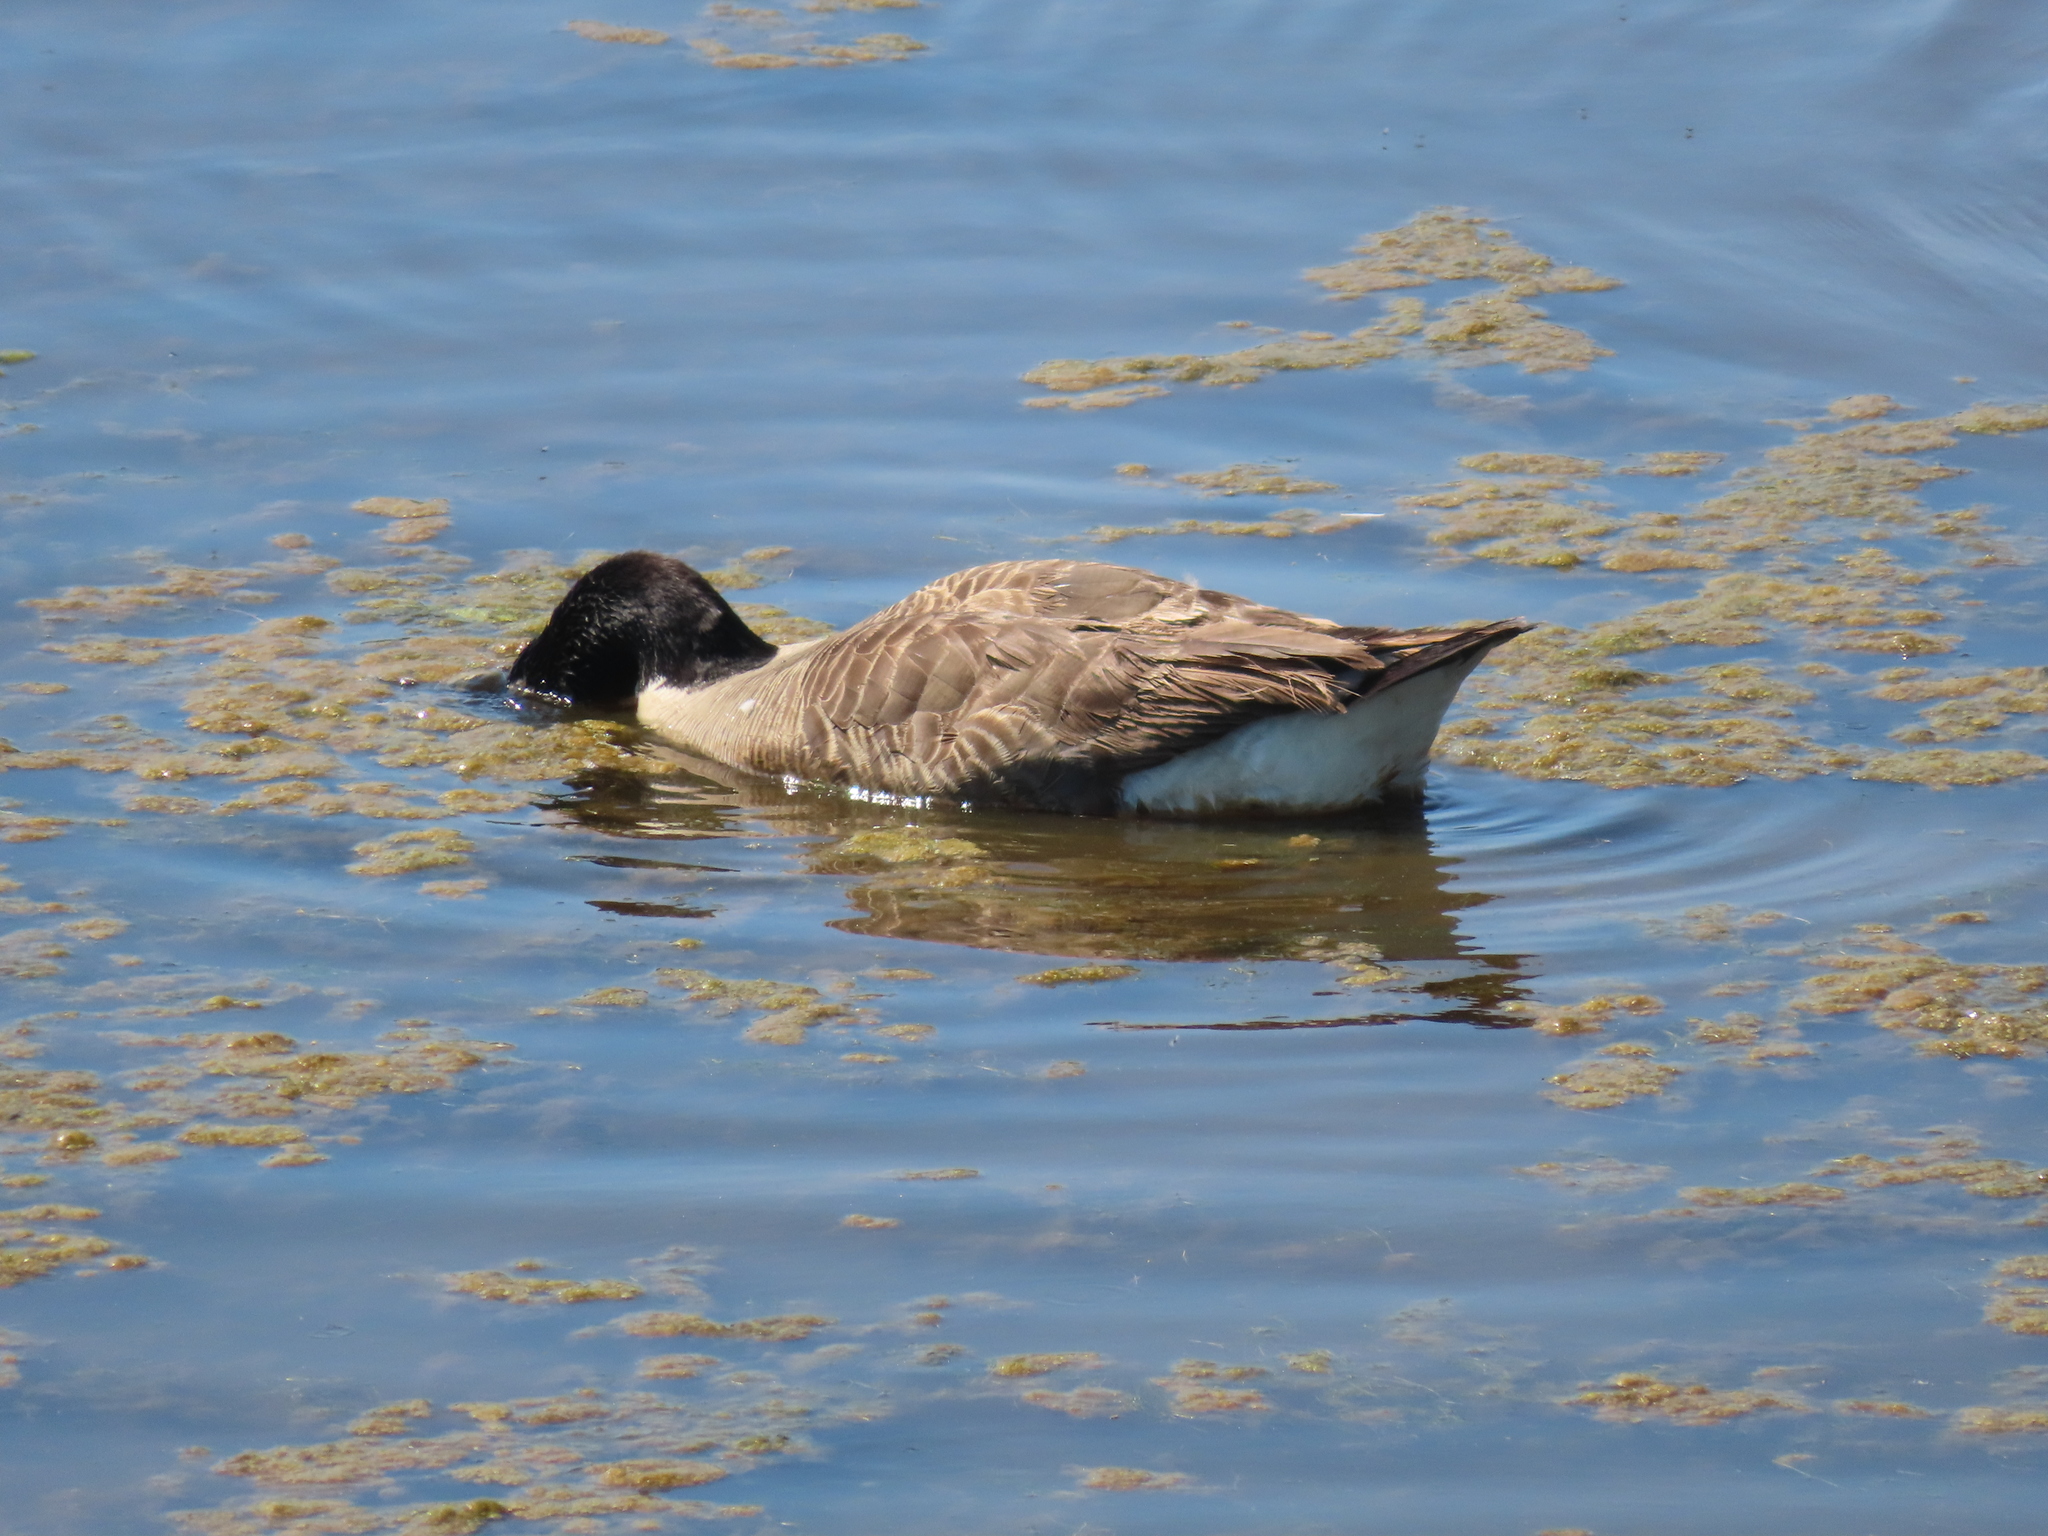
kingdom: Animalia
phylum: Chordata
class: Aves
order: Anseriformes
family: Anatidae
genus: Branta
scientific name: Branta canadensis
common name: Canada goose
